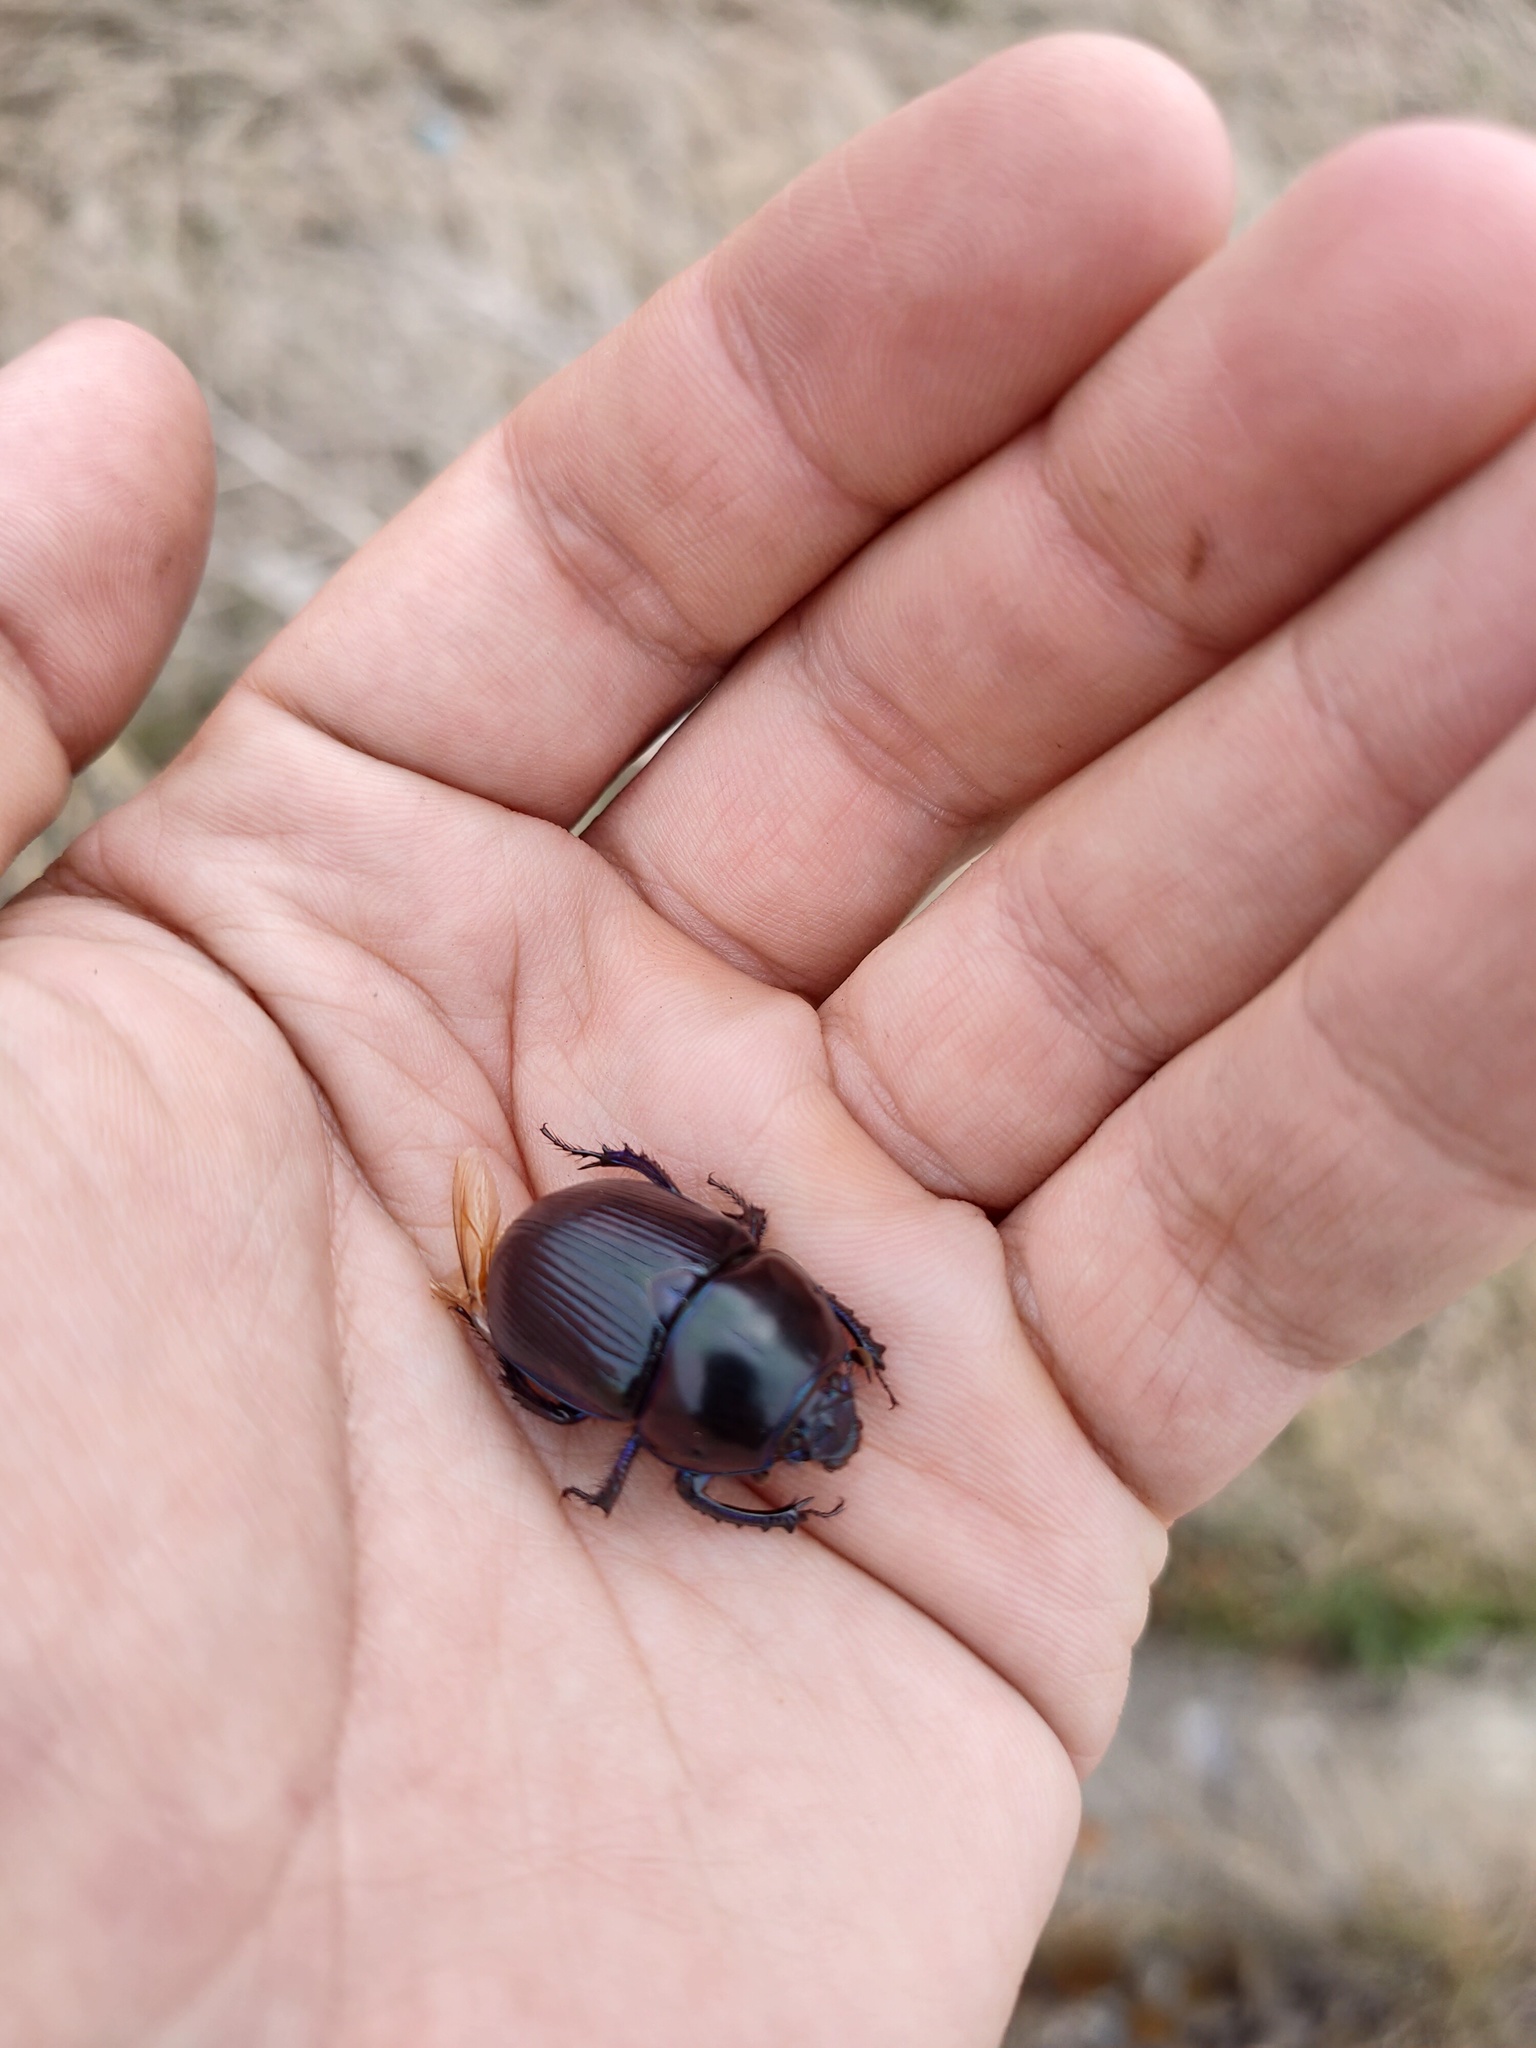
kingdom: Animalia
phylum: Arthropoda
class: Insecta
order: Coleoptera
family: Geotrupidae
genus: Anoplotrupes
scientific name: Anoplotrupes stercorosus
